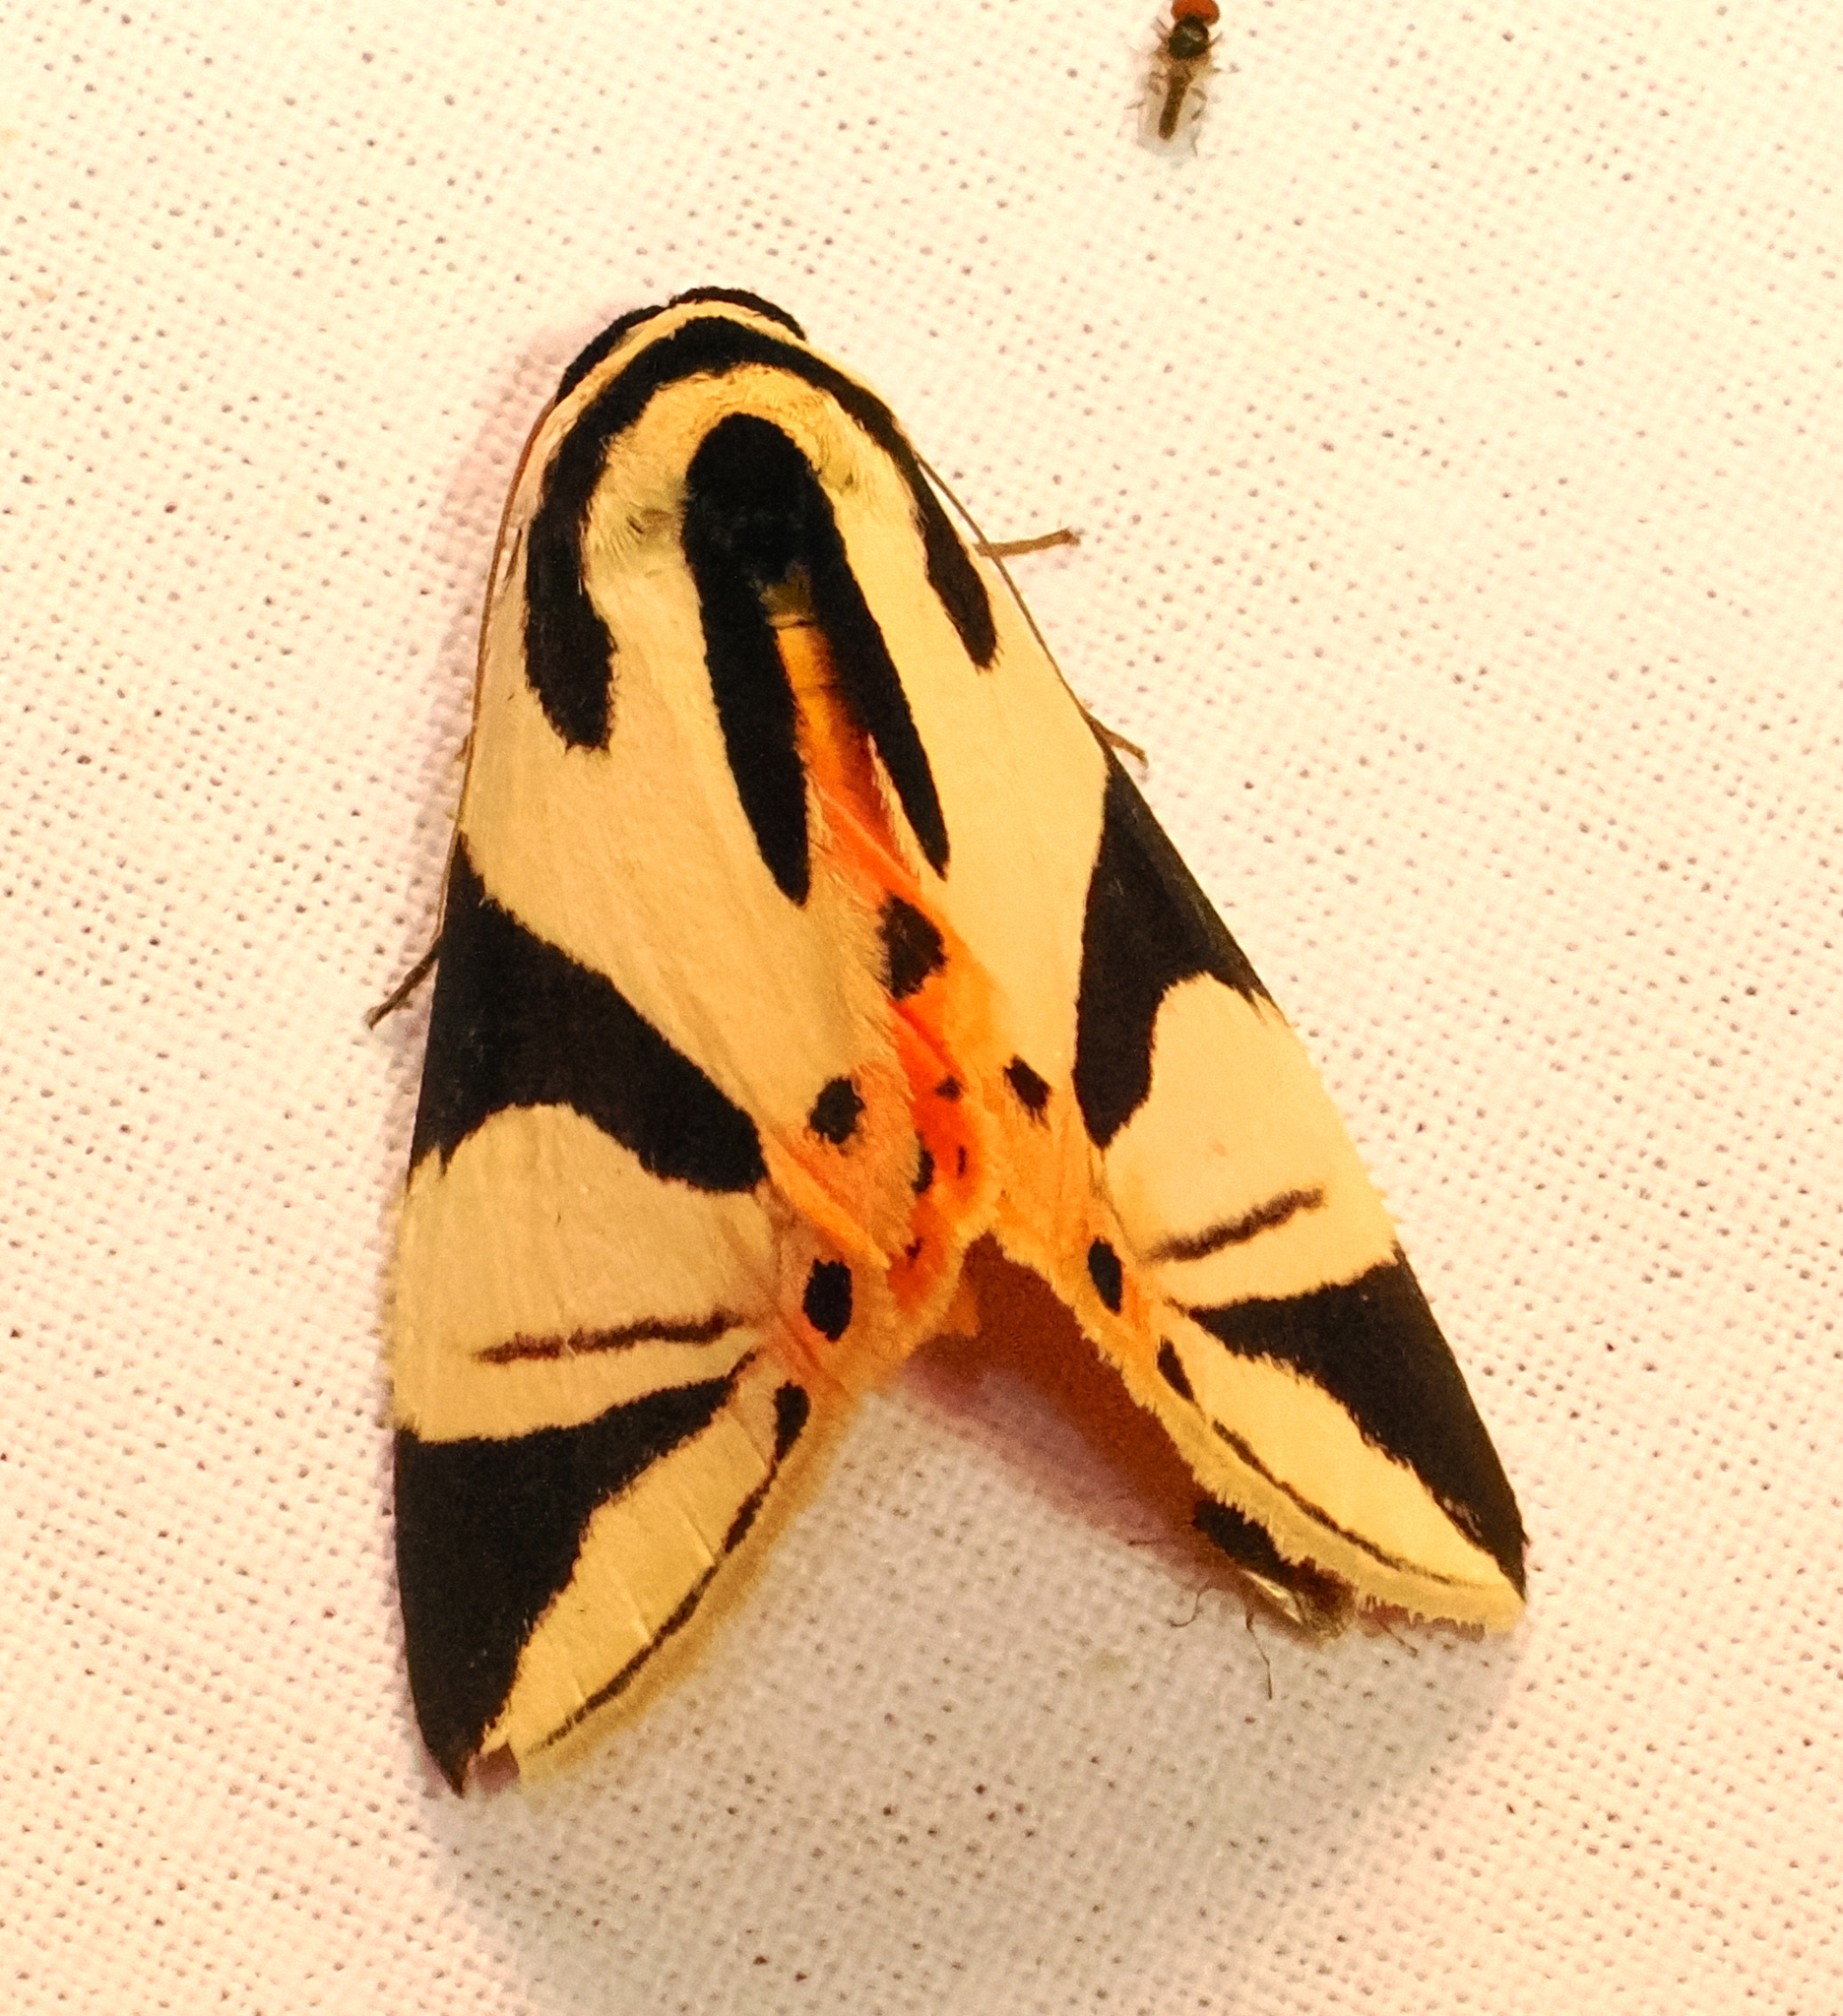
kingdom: Animalia
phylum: Arthropoda
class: Insecta
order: Lepidoptera
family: Erebidae
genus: Attatha
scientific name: Attatha regalis
